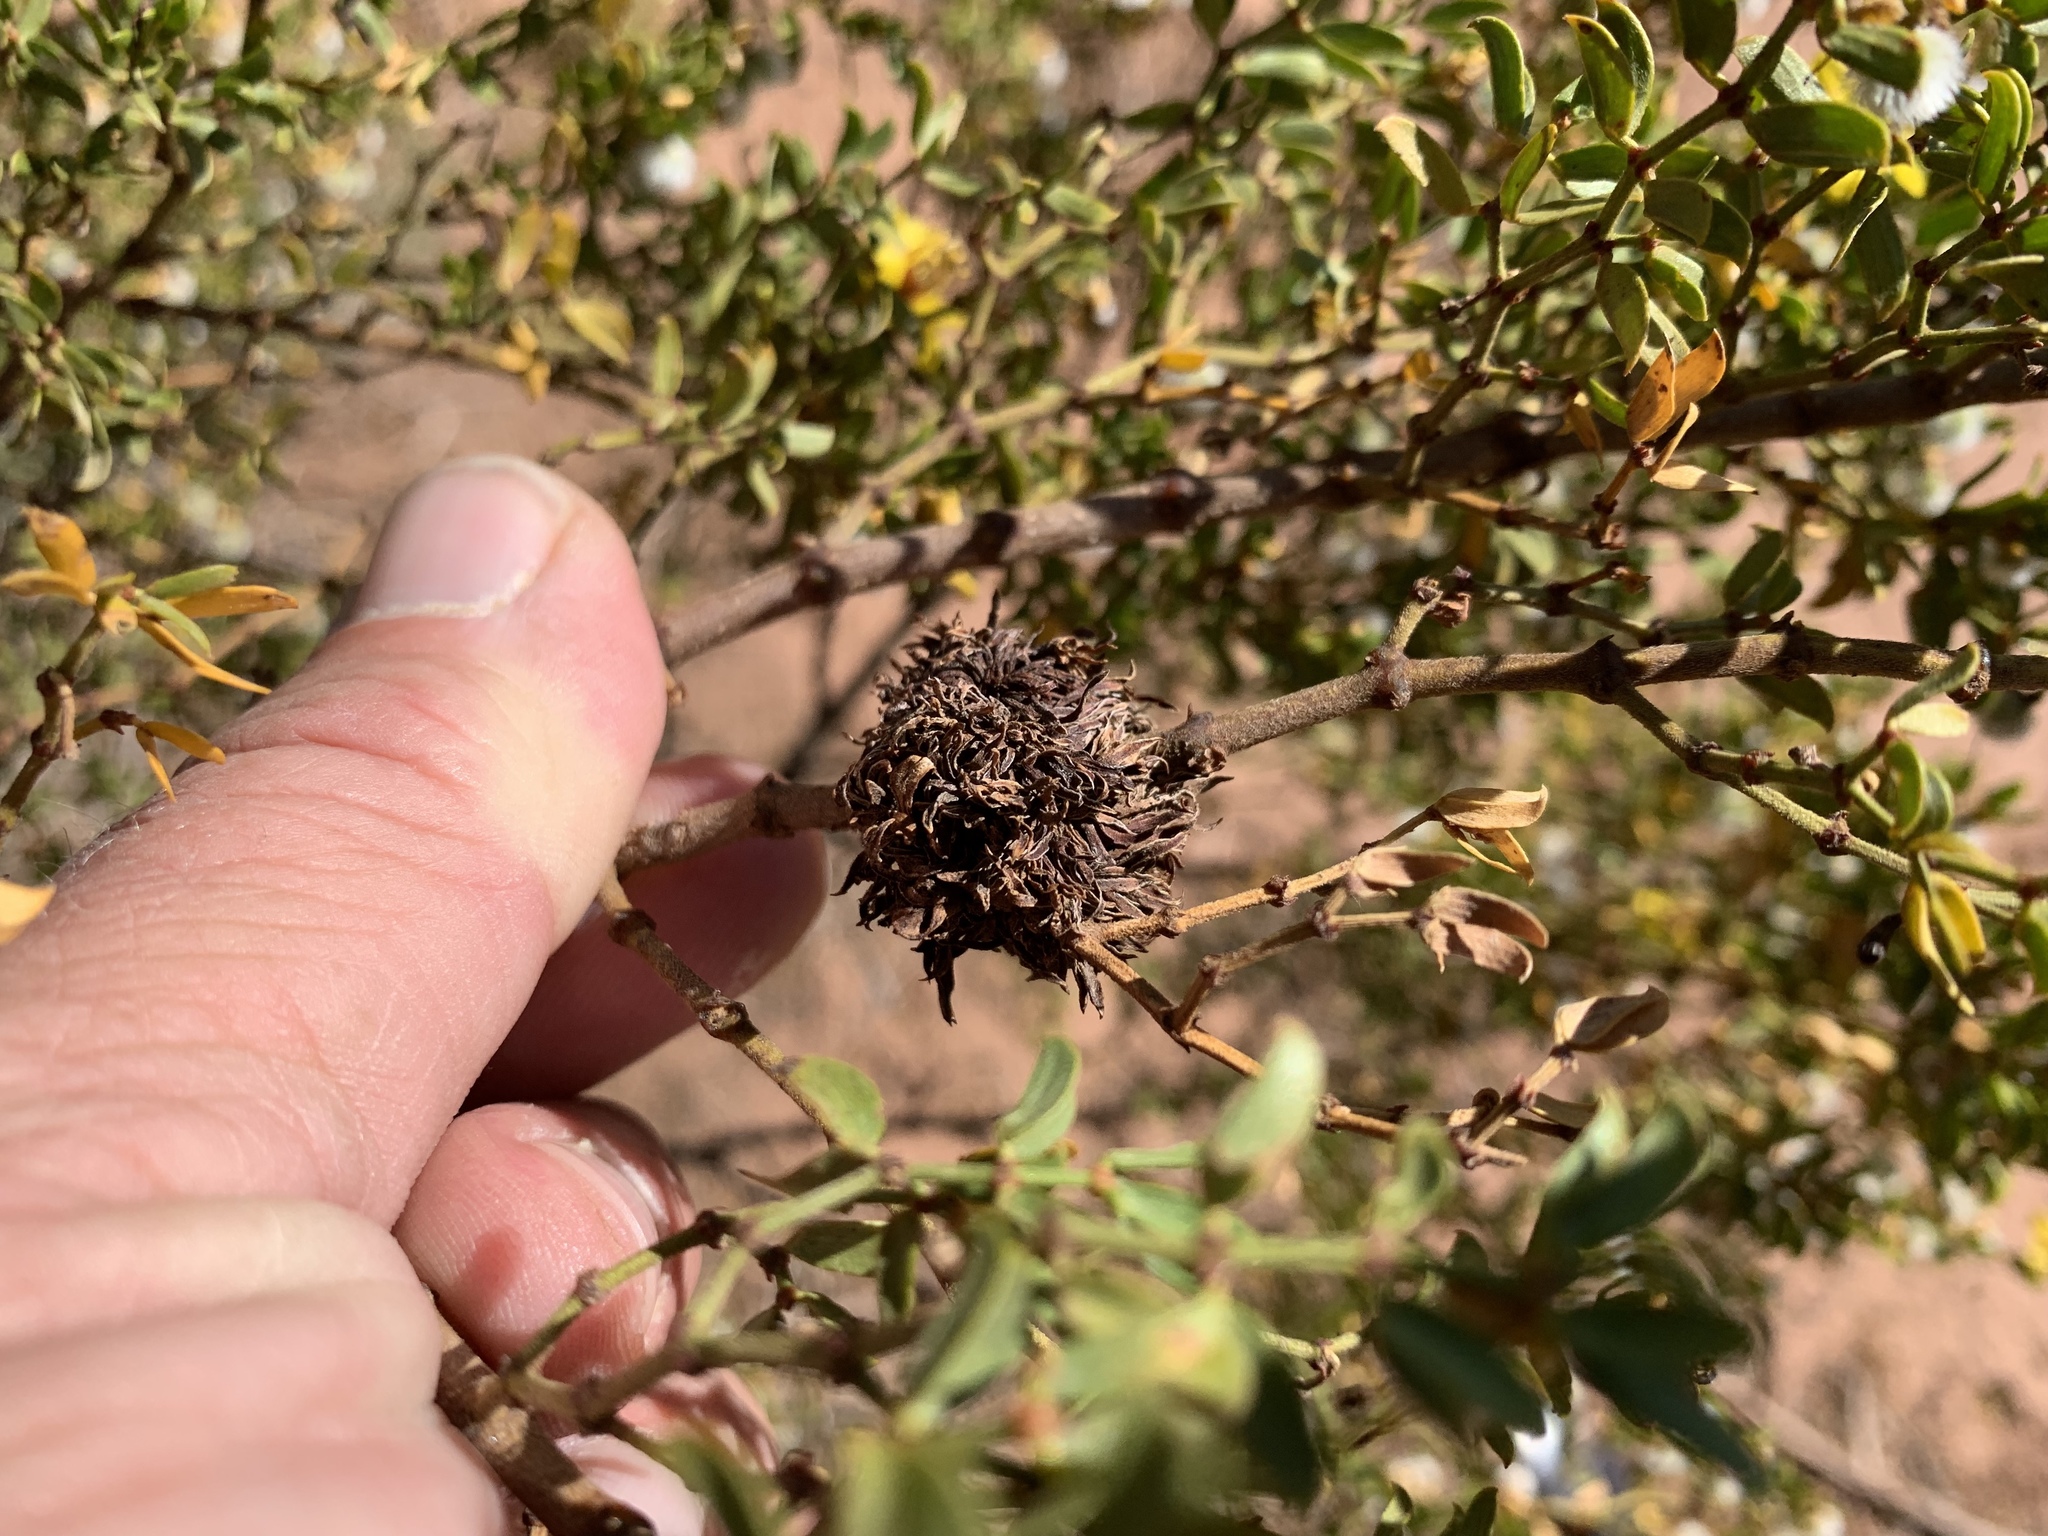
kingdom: Animalia
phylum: Arthropoda
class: Insecta
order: Diptera
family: Cecidomyiidae
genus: Asphondylia
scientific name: Asphondylia auripila
